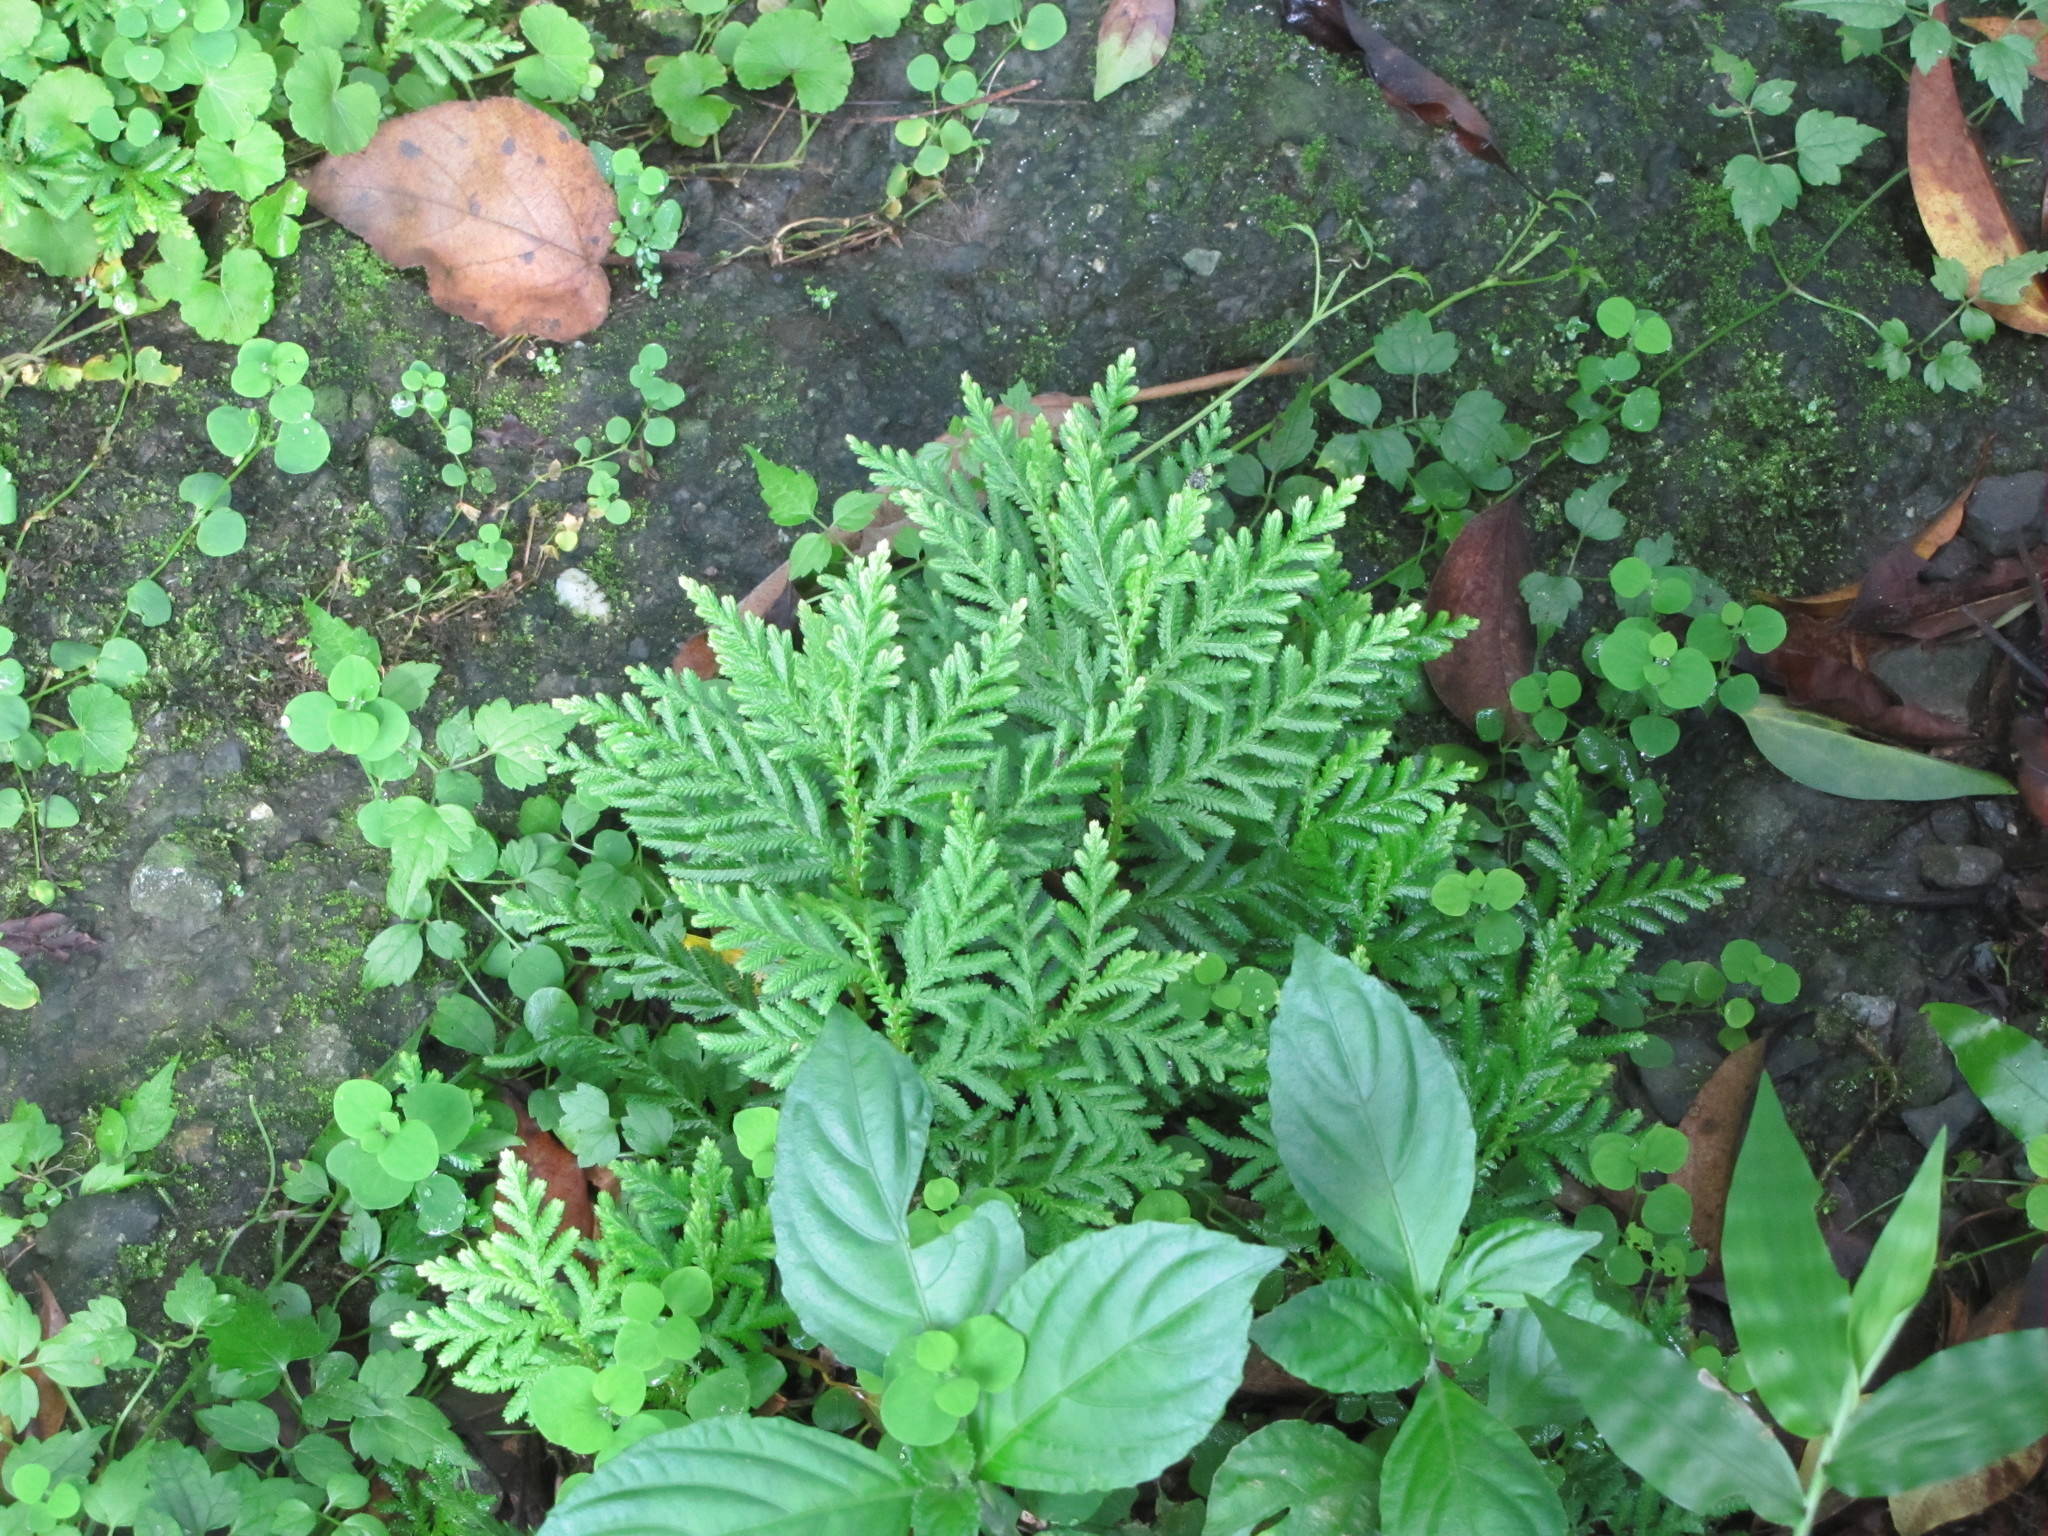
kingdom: Plantae
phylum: Tracheophyta
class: Lycopodiopsida
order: Selaginellales
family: Selaginellaceae
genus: Selaginella
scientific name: Selaginella delicatula
